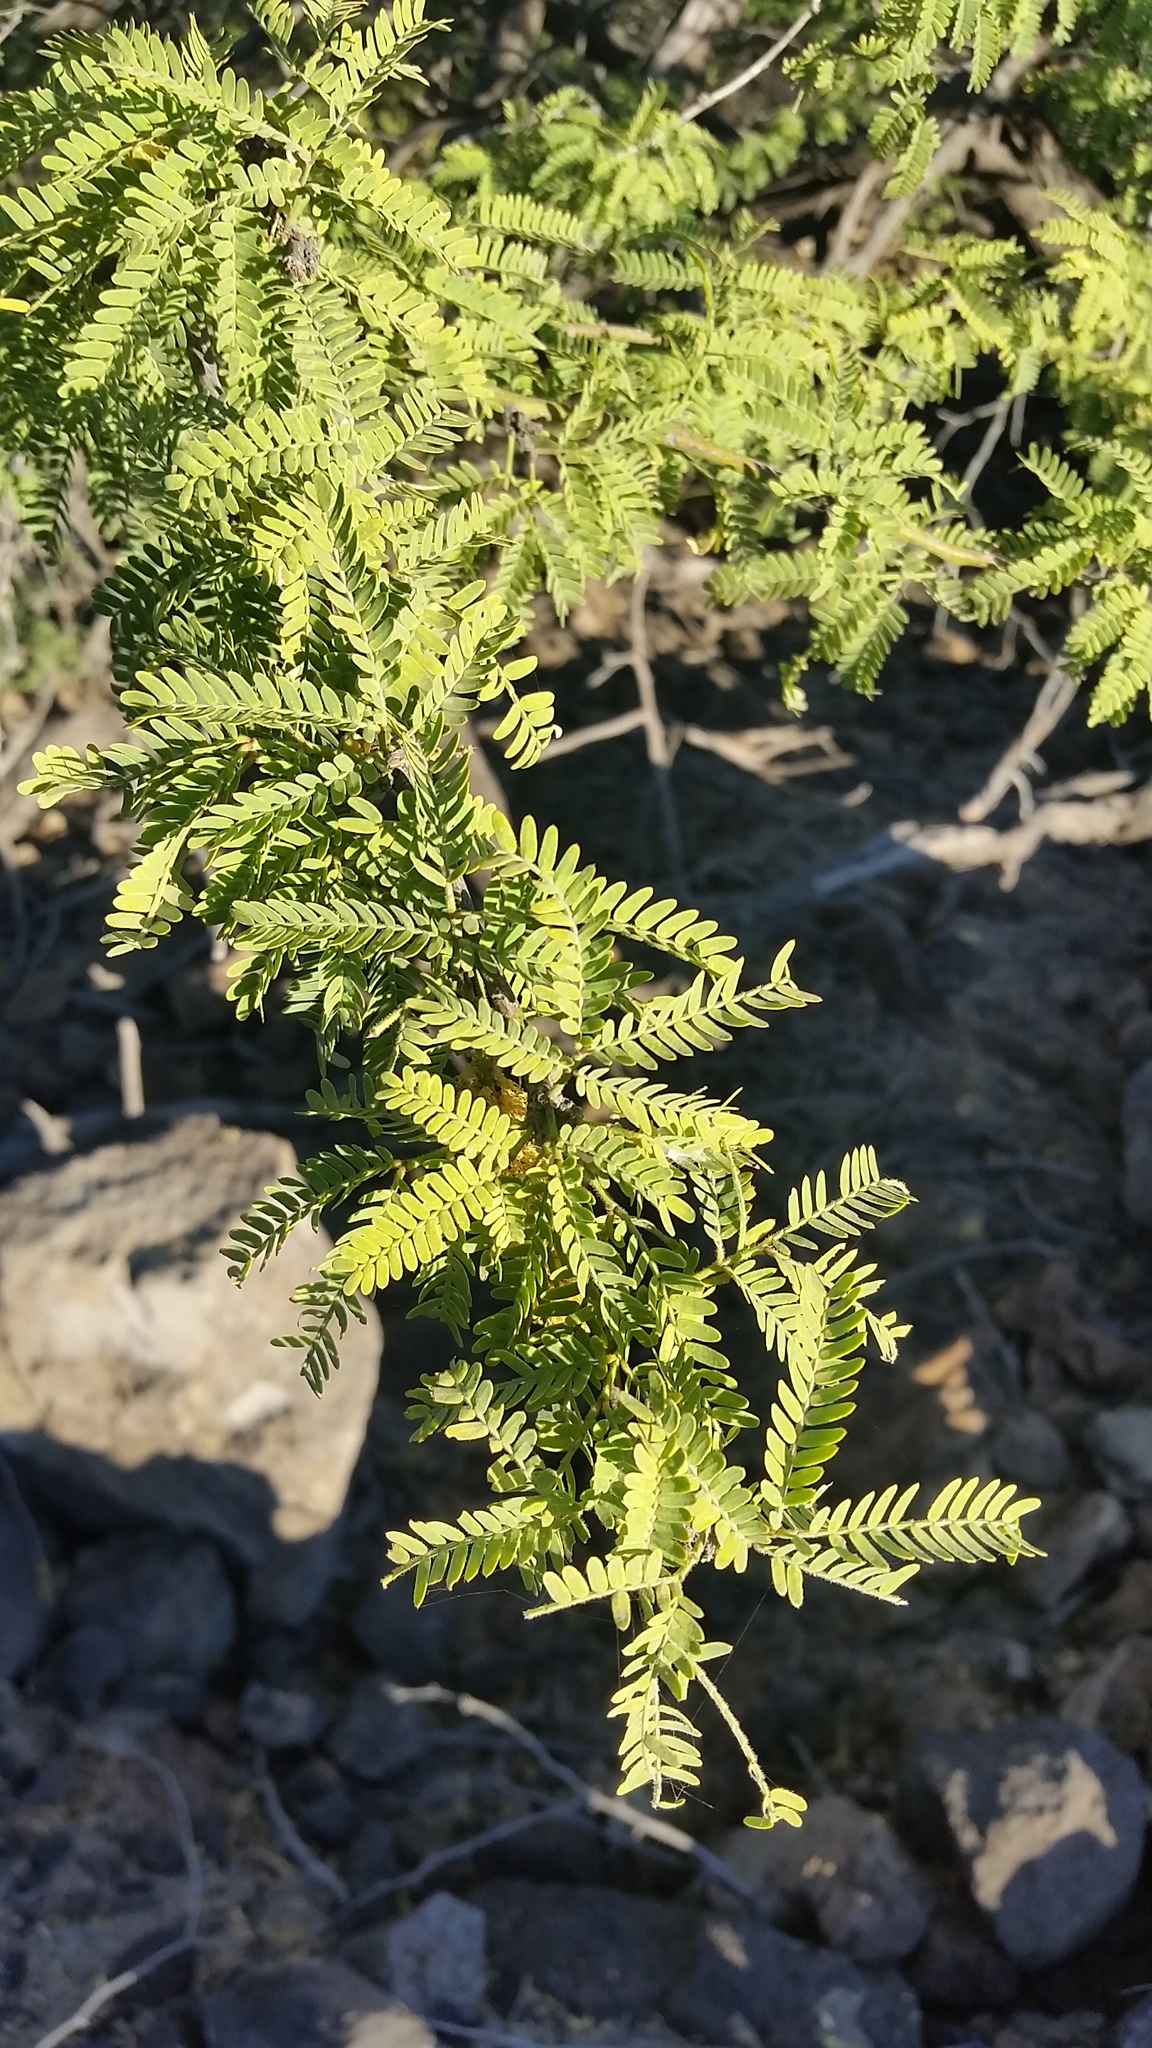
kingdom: Plantae
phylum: Tracheophyta
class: Magnoliopsida
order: Fabales
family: Fabaceae
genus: Prosopis
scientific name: Prosopis pallida
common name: Mesquite
